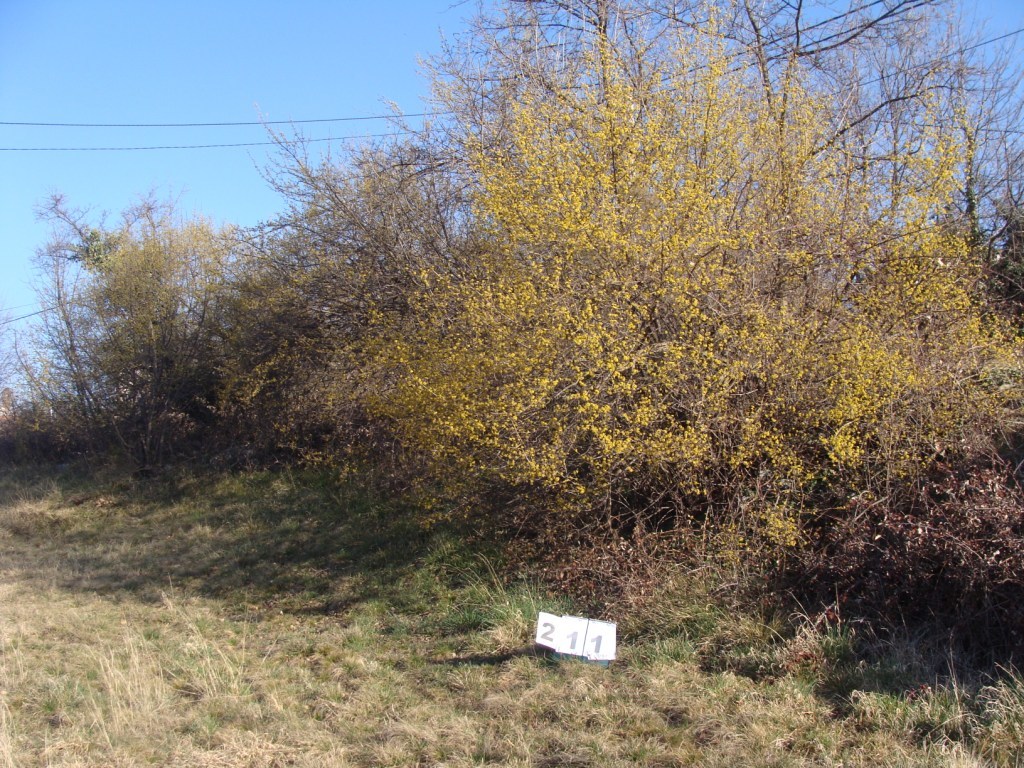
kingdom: Plantae
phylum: Tracheophyta
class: Magnoliopsida
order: Cornales
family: Cornaceae
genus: Cornus
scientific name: Cornus mas
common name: Cornelian-cherry
